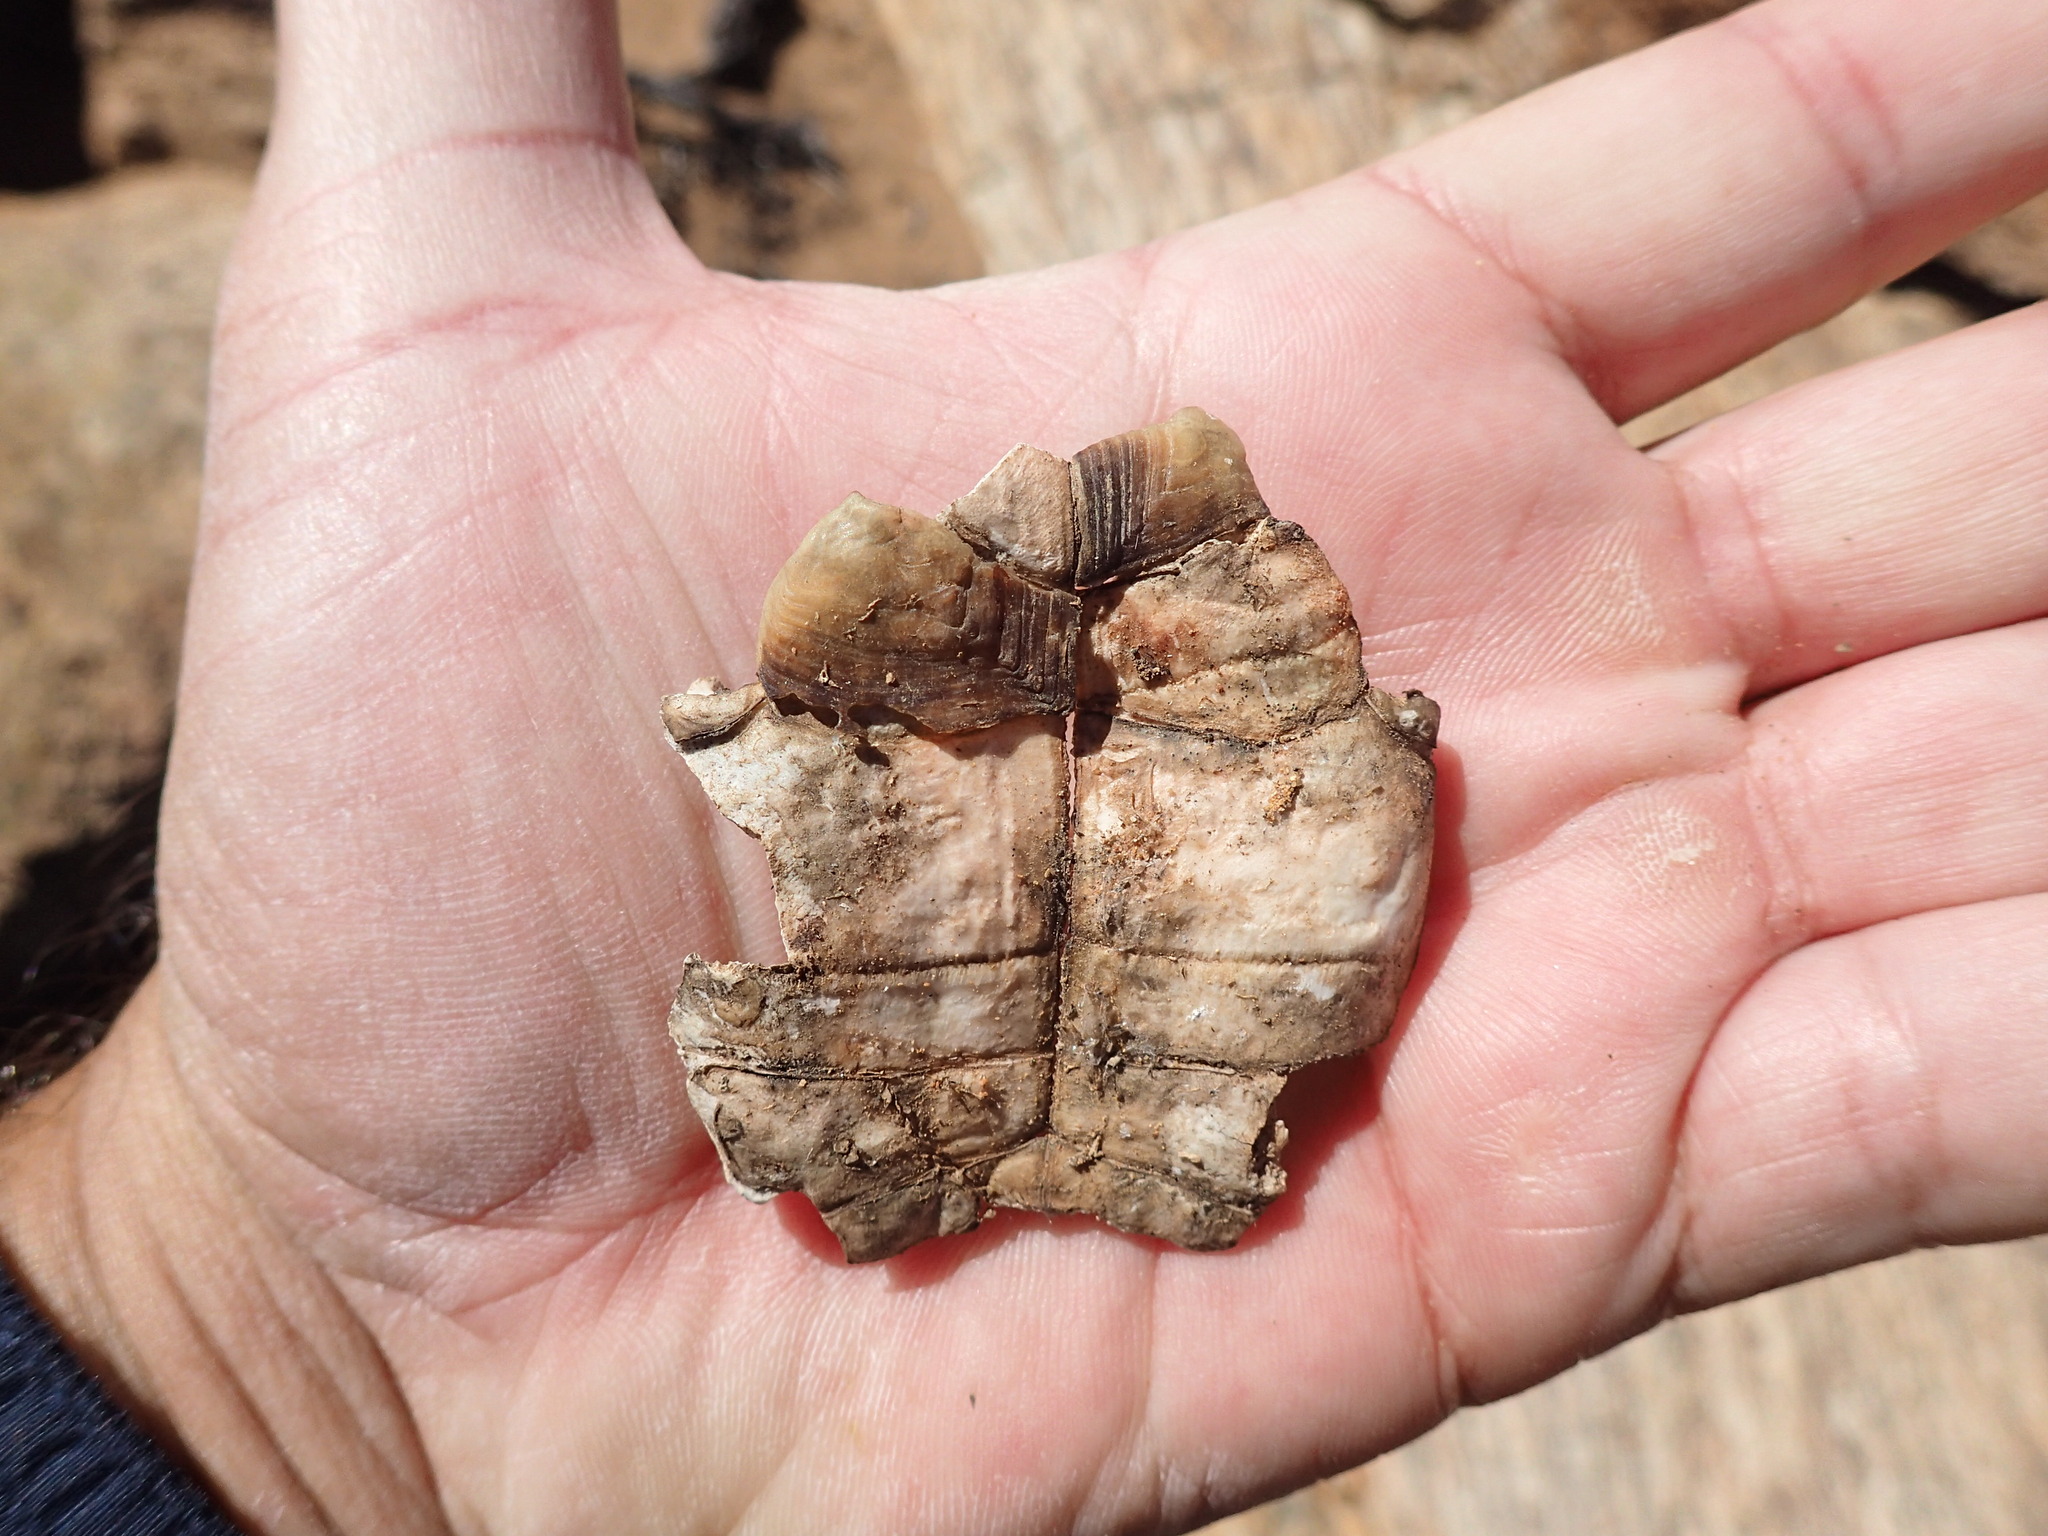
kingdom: Animalia
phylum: Chordata
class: Testudines
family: Testudinidae
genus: Chersobius
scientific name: Chersobius signatus
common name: Speckled cape tortoise
